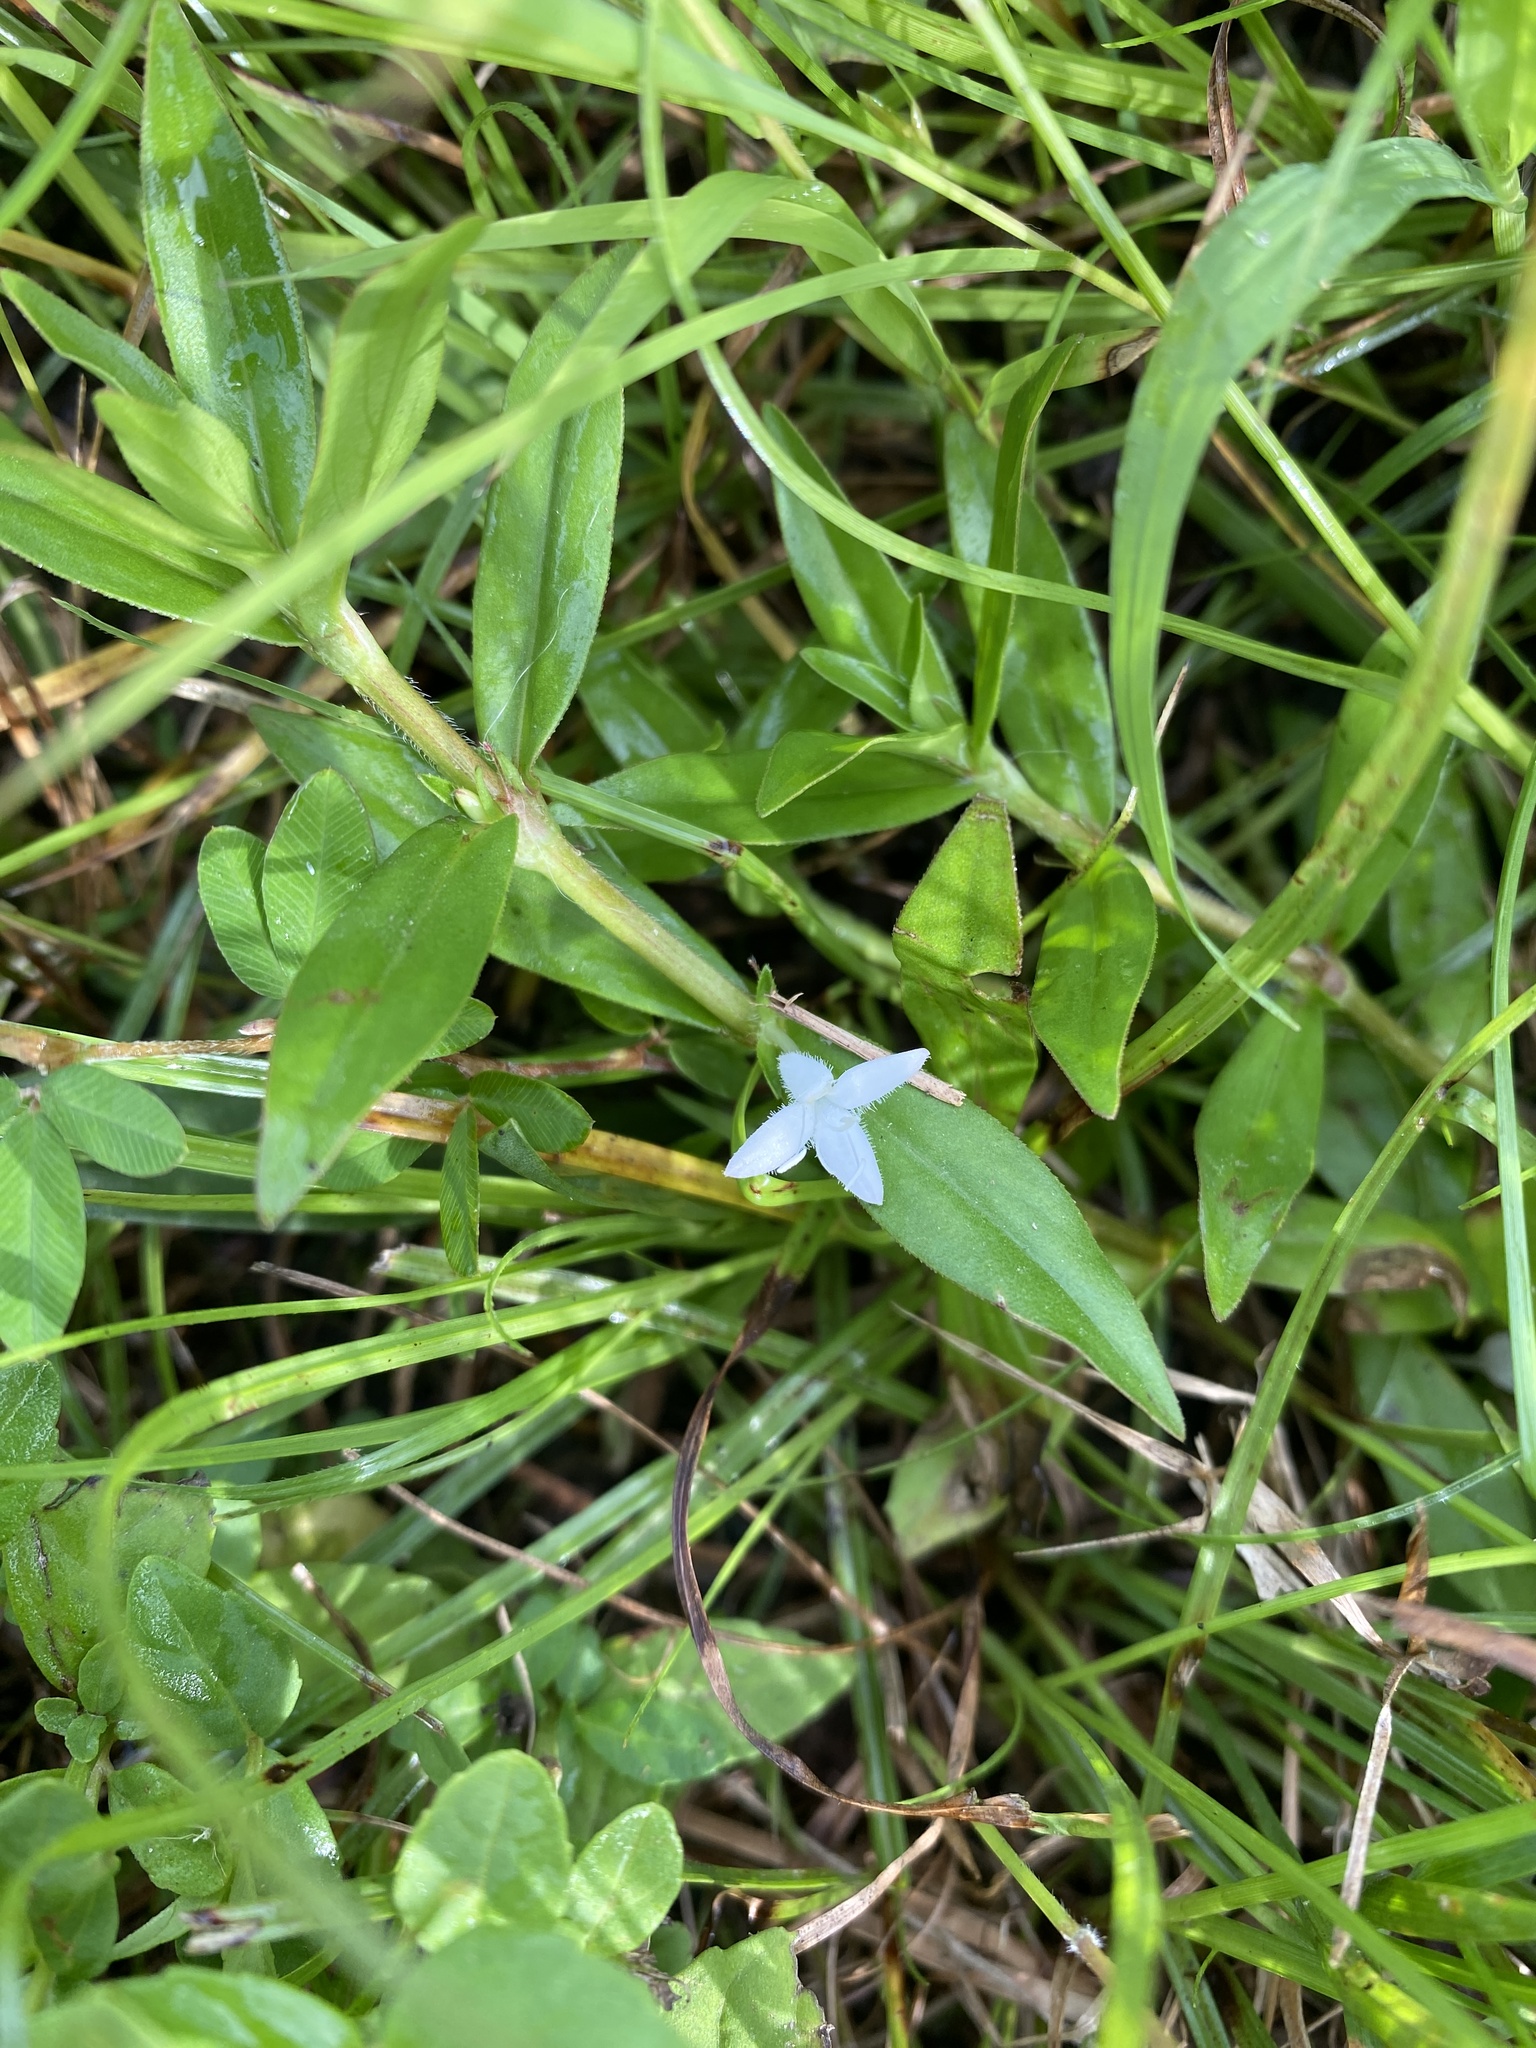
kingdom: Plantae
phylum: Tracheophyta
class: Magnoliopsida
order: Gentianales
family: Rubiaceae
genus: Diodia
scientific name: Diodia virginiana
